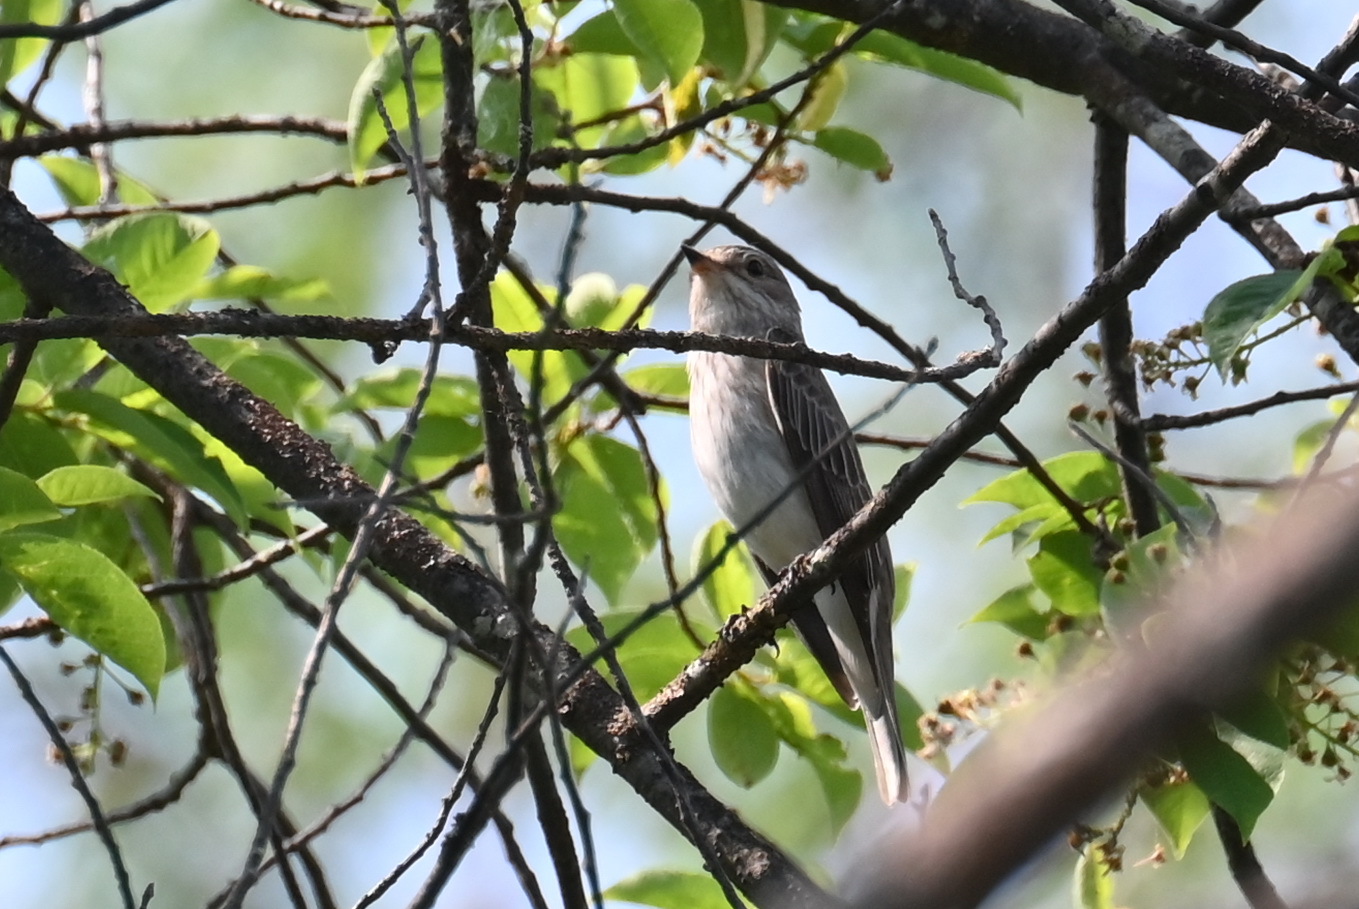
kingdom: Animalia
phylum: Chordata
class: Aves
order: Passeriformes
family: Muscicapidae
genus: Muscicapa
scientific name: Muscicapa striata
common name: Spotted flycatcher
